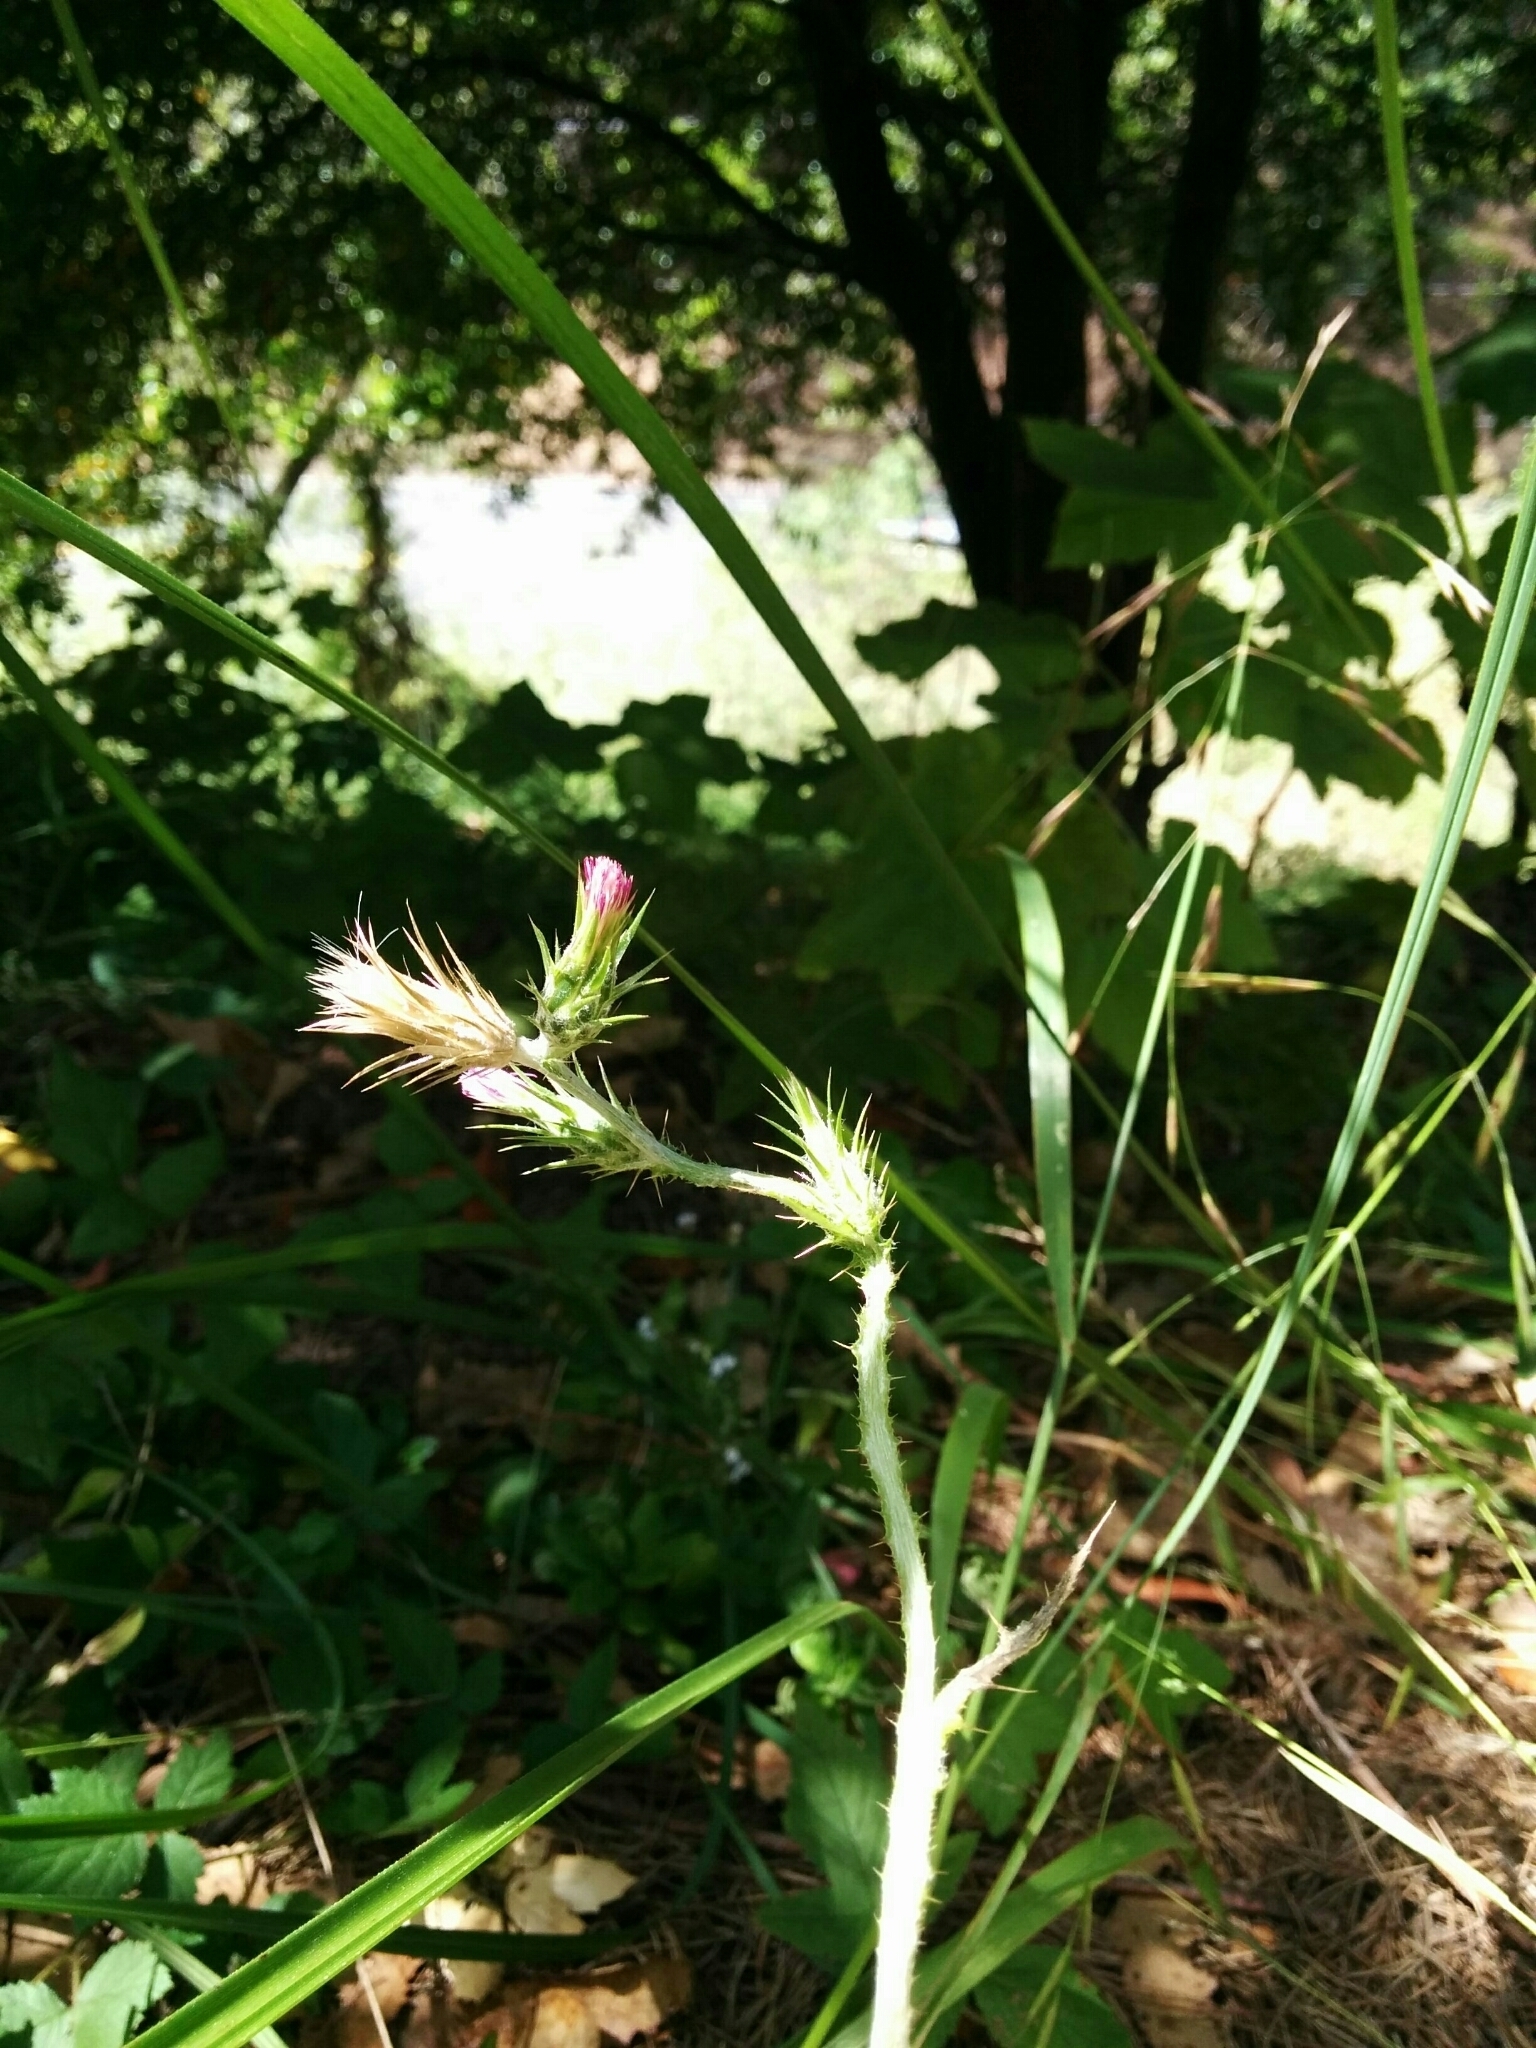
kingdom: Plantae
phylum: Tracheophyta
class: Magnoliopsida
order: Asterales
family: Asteraceae
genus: Carduus
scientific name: Carduus pycnocephalus
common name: Plymouth thistle
